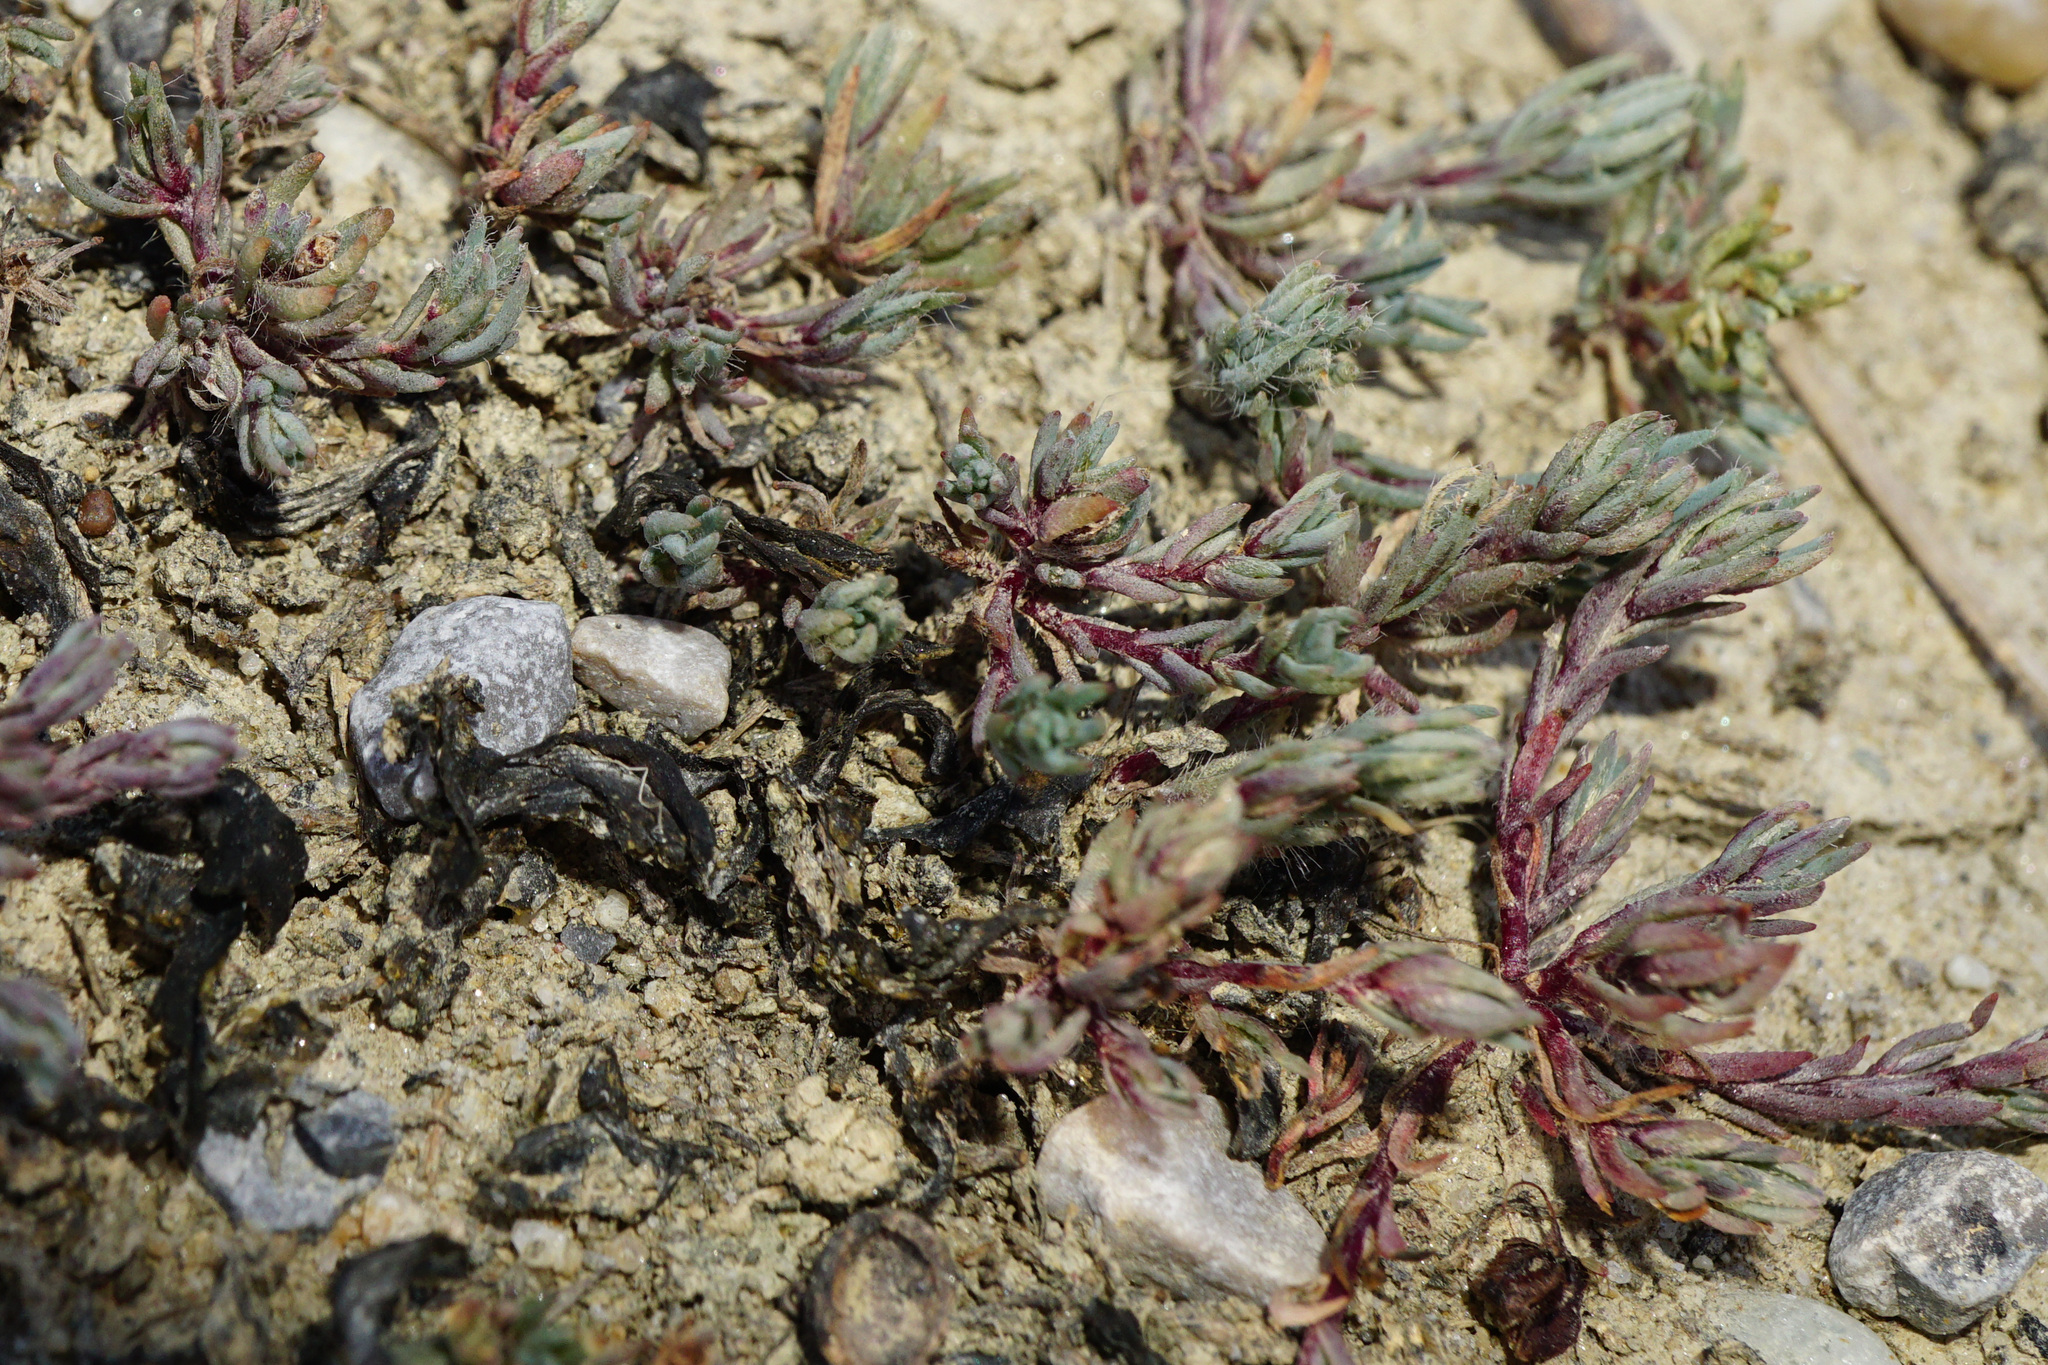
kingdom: Plantae
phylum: Tracheophyta
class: Magnoliopsida
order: Caryophyllales
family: Amaranthaceae
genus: Camphorosma
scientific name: Camphorosma annua
